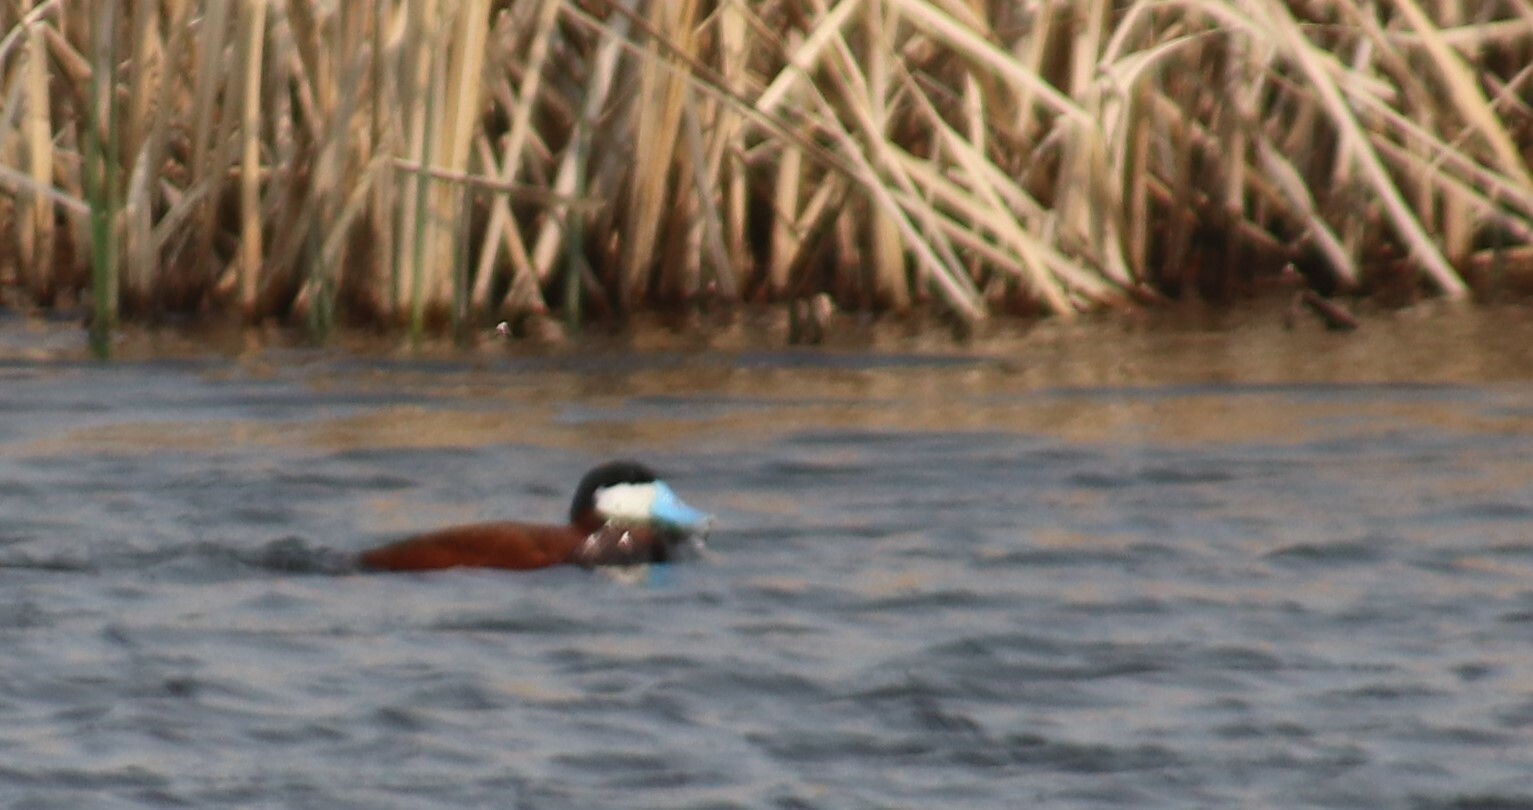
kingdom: Animalia
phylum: Chordata
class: Aves
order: Anseriformes
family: Anatidae
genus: Oxyura
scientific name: Oxyura jamaicensis
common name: Ruddy duck
